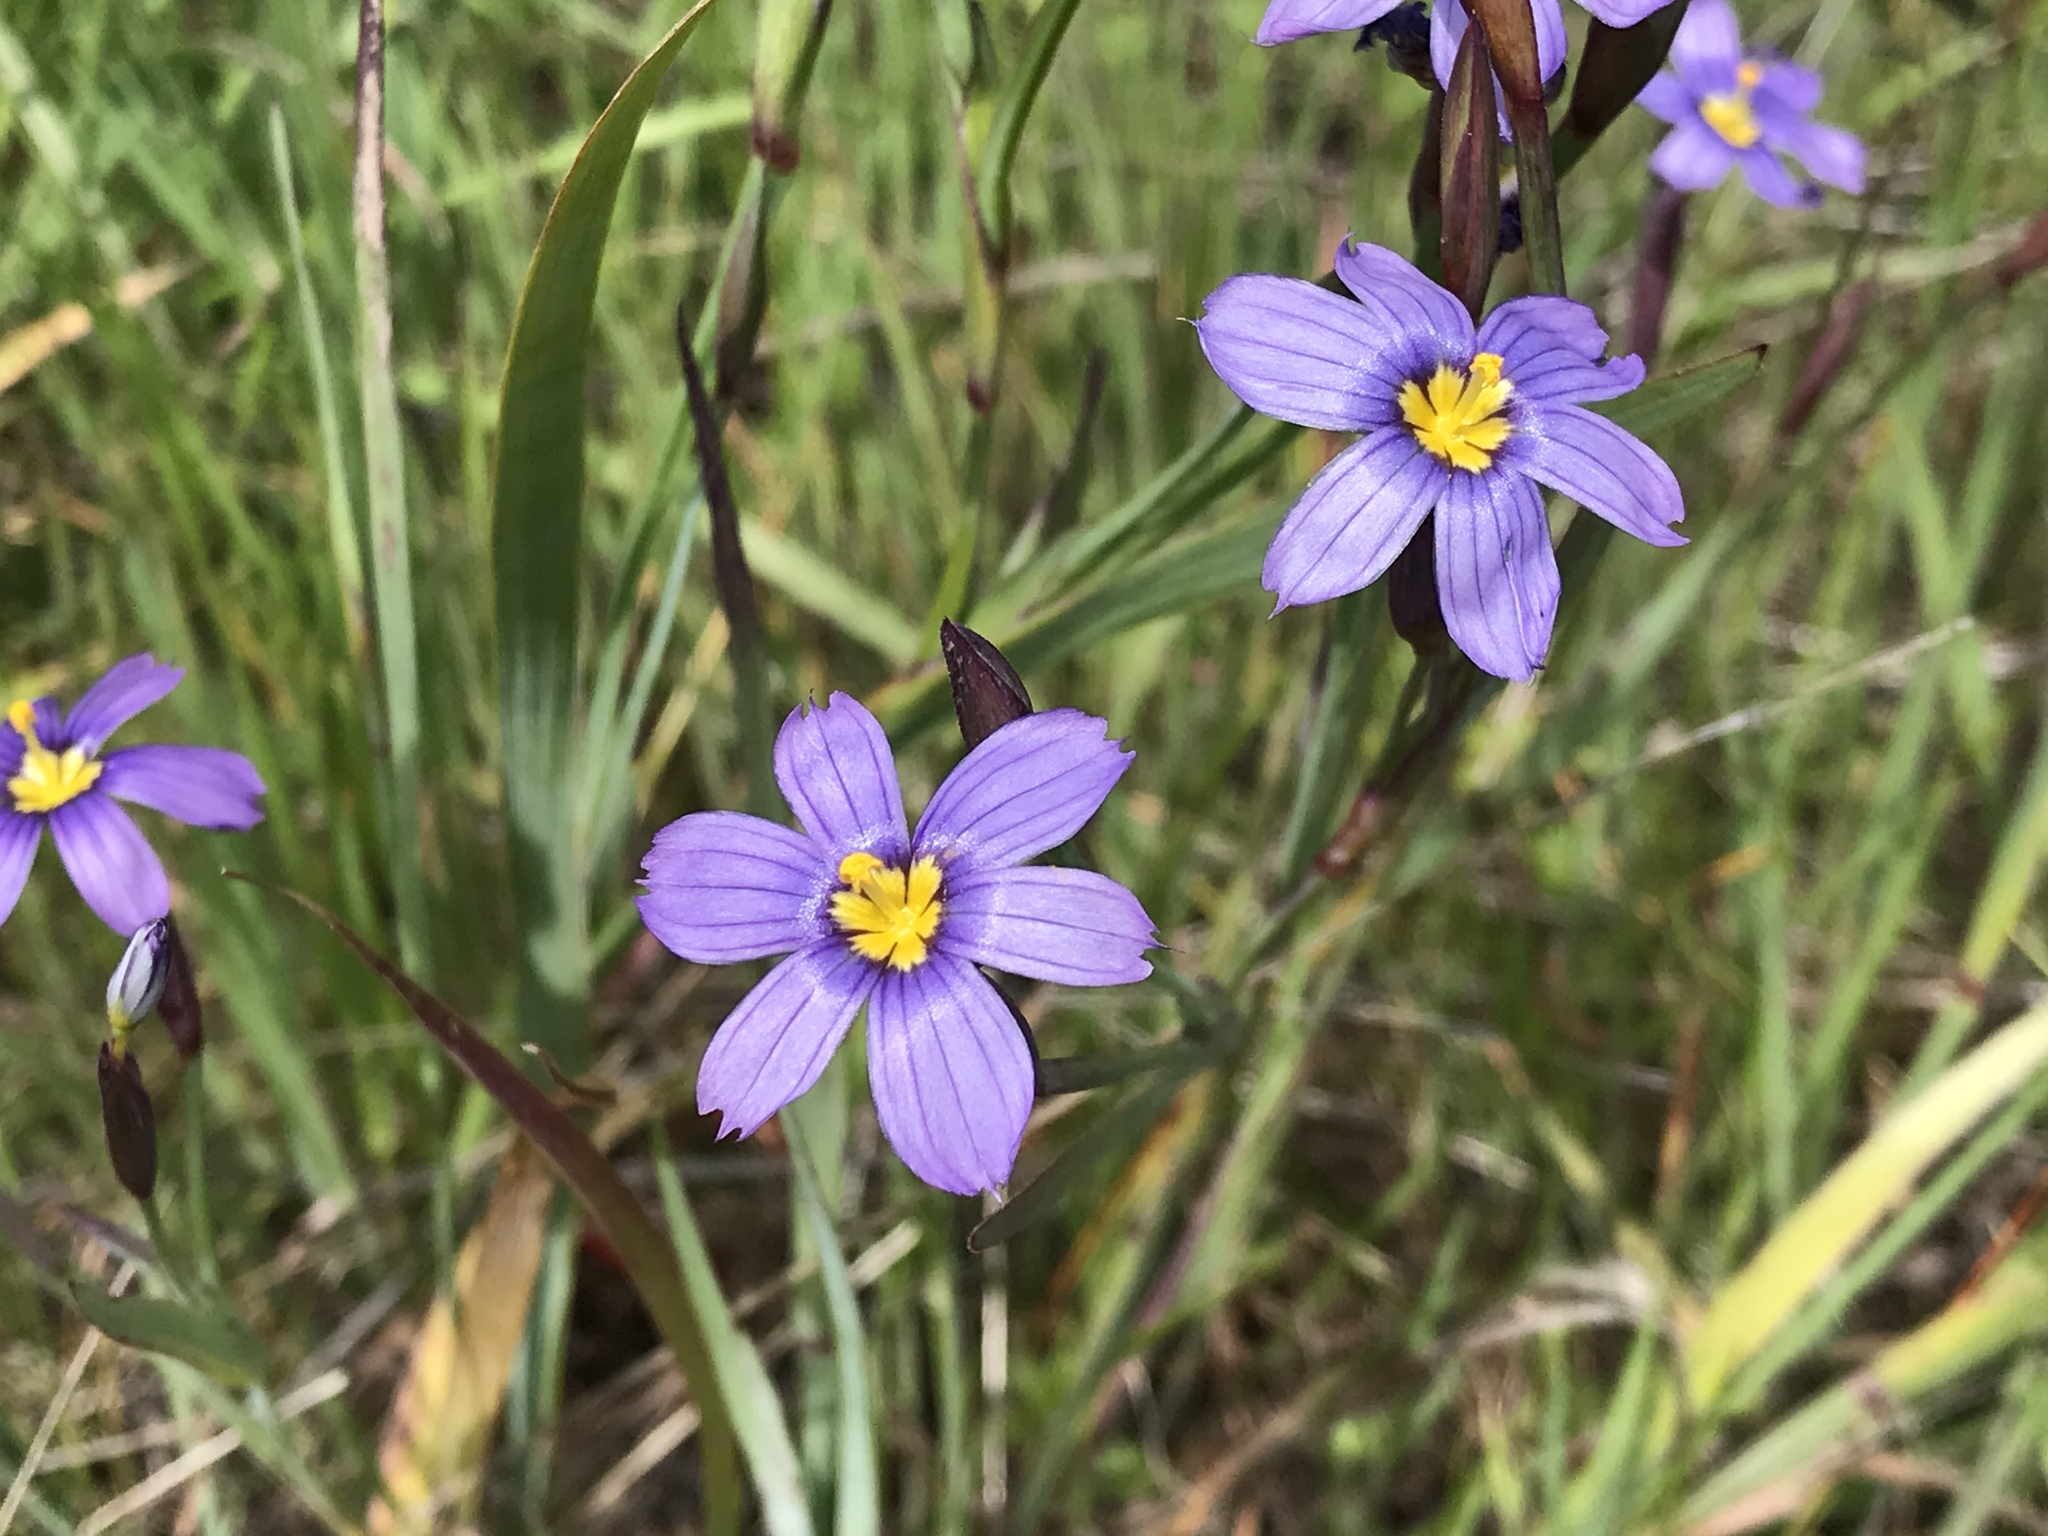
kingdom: Plantae
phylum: Tracheophyta
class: Liliopsida
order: Asparagales
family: Iridaceae
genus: Sisyrinchium
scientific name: Sisyrinchium bellum
